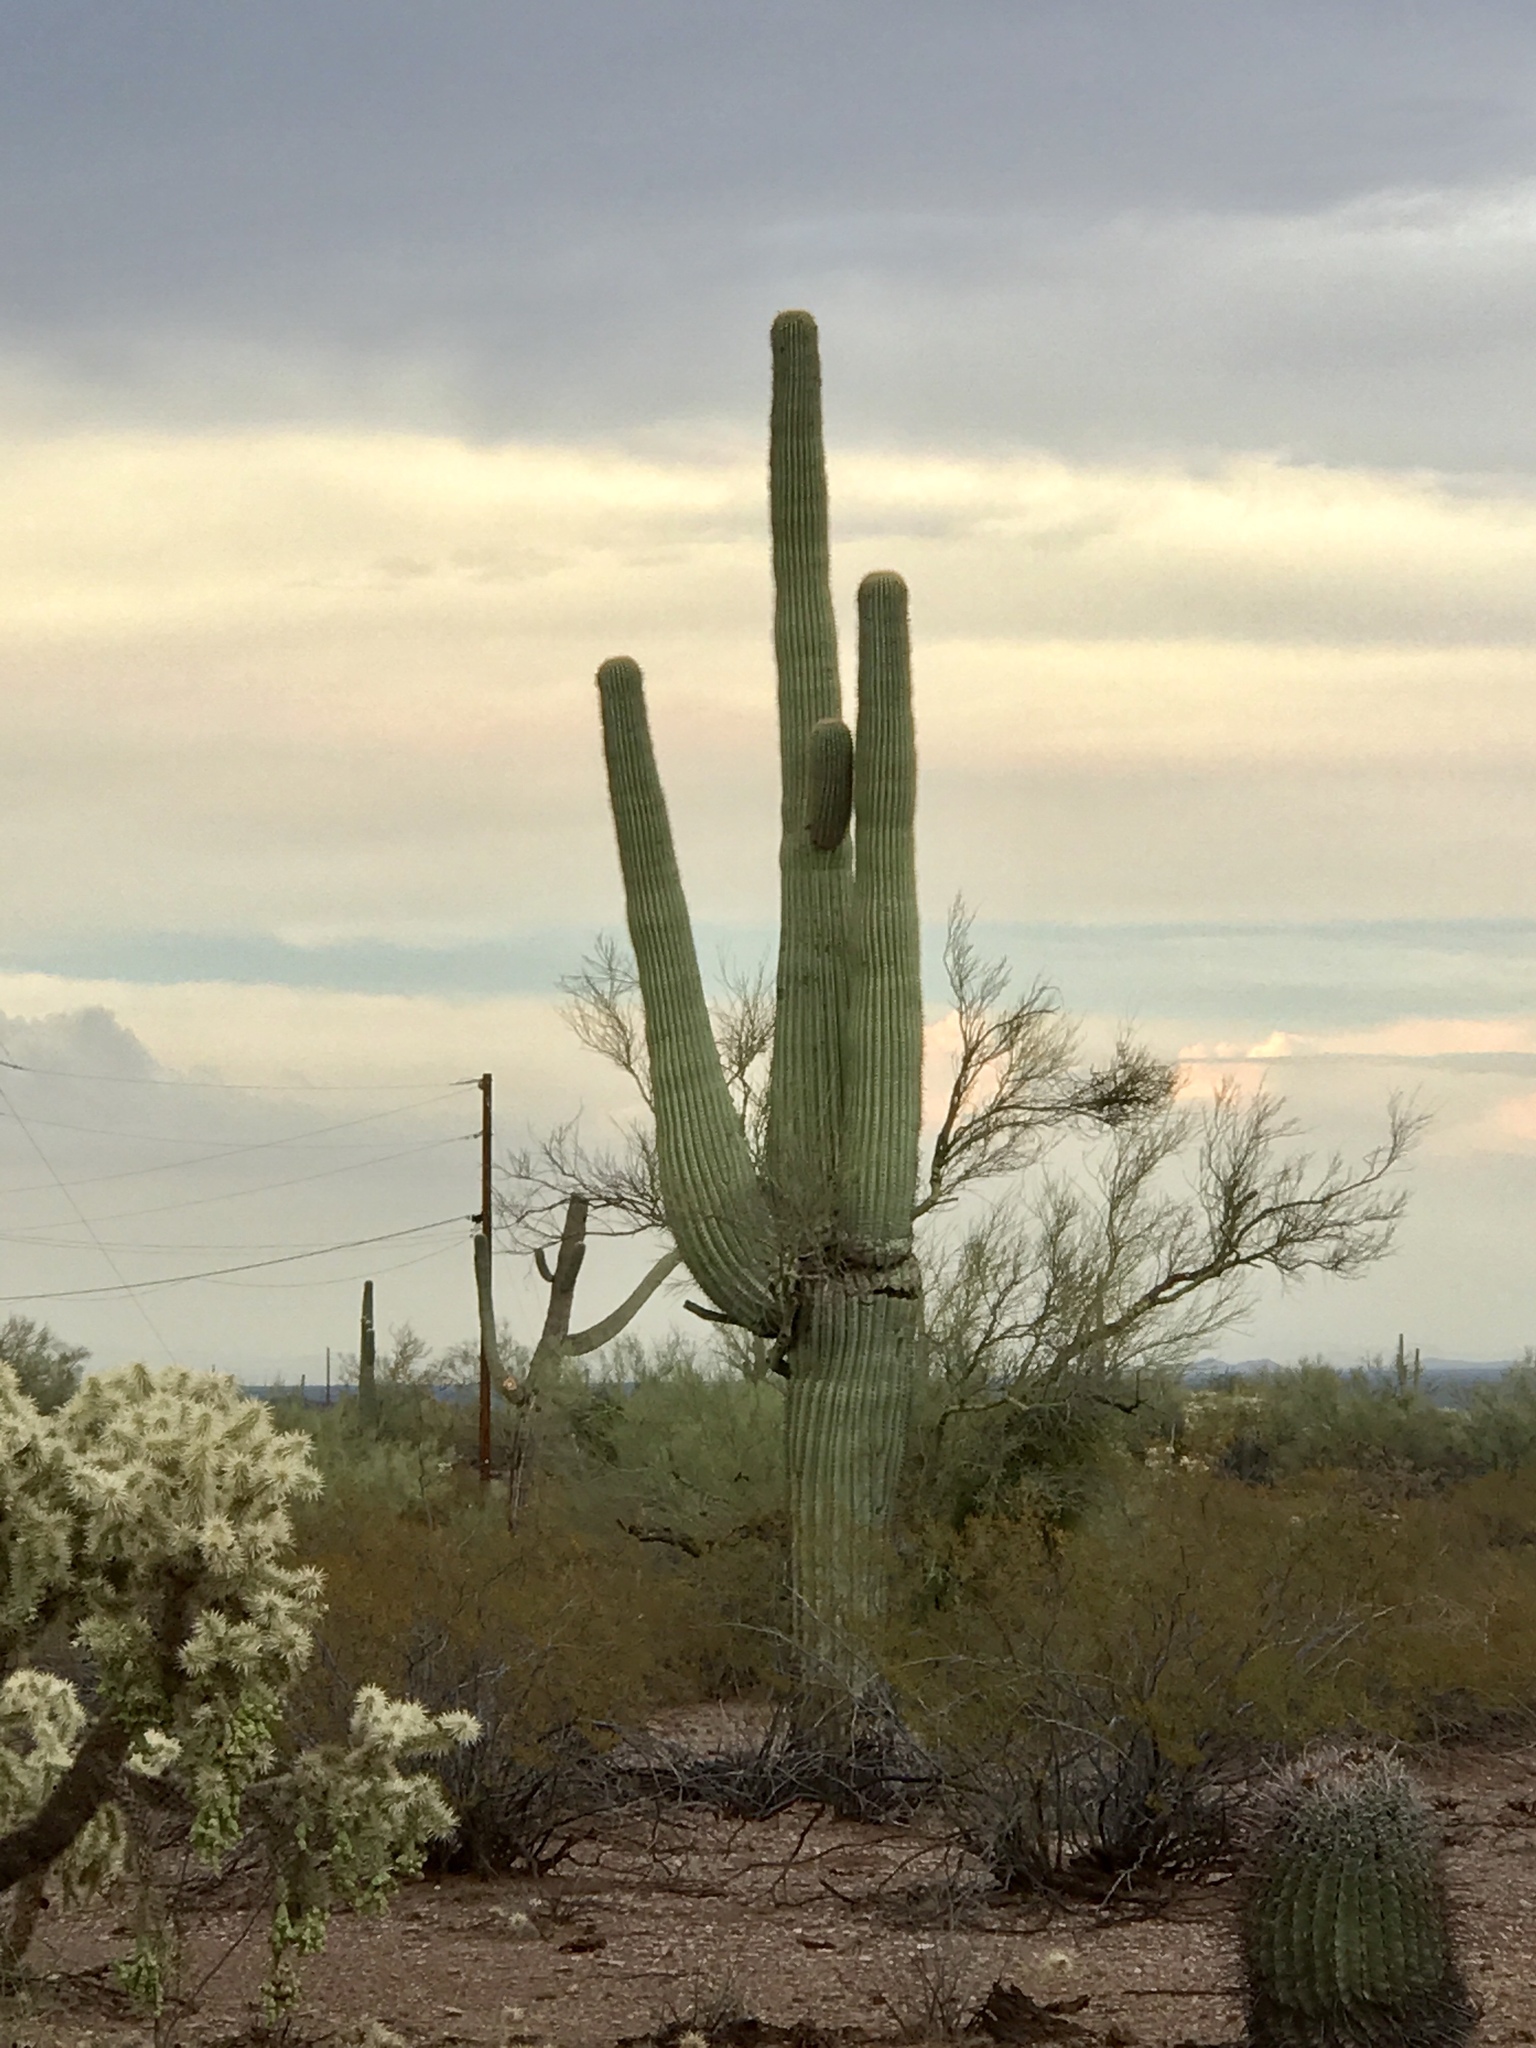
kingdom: Plantae
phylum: Tracheophyta
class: Magnoliopsida
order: Caryophyllales
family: Cactaceae
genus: Carnegiea
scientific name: Carnegiea gigantea
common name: Saguaro
